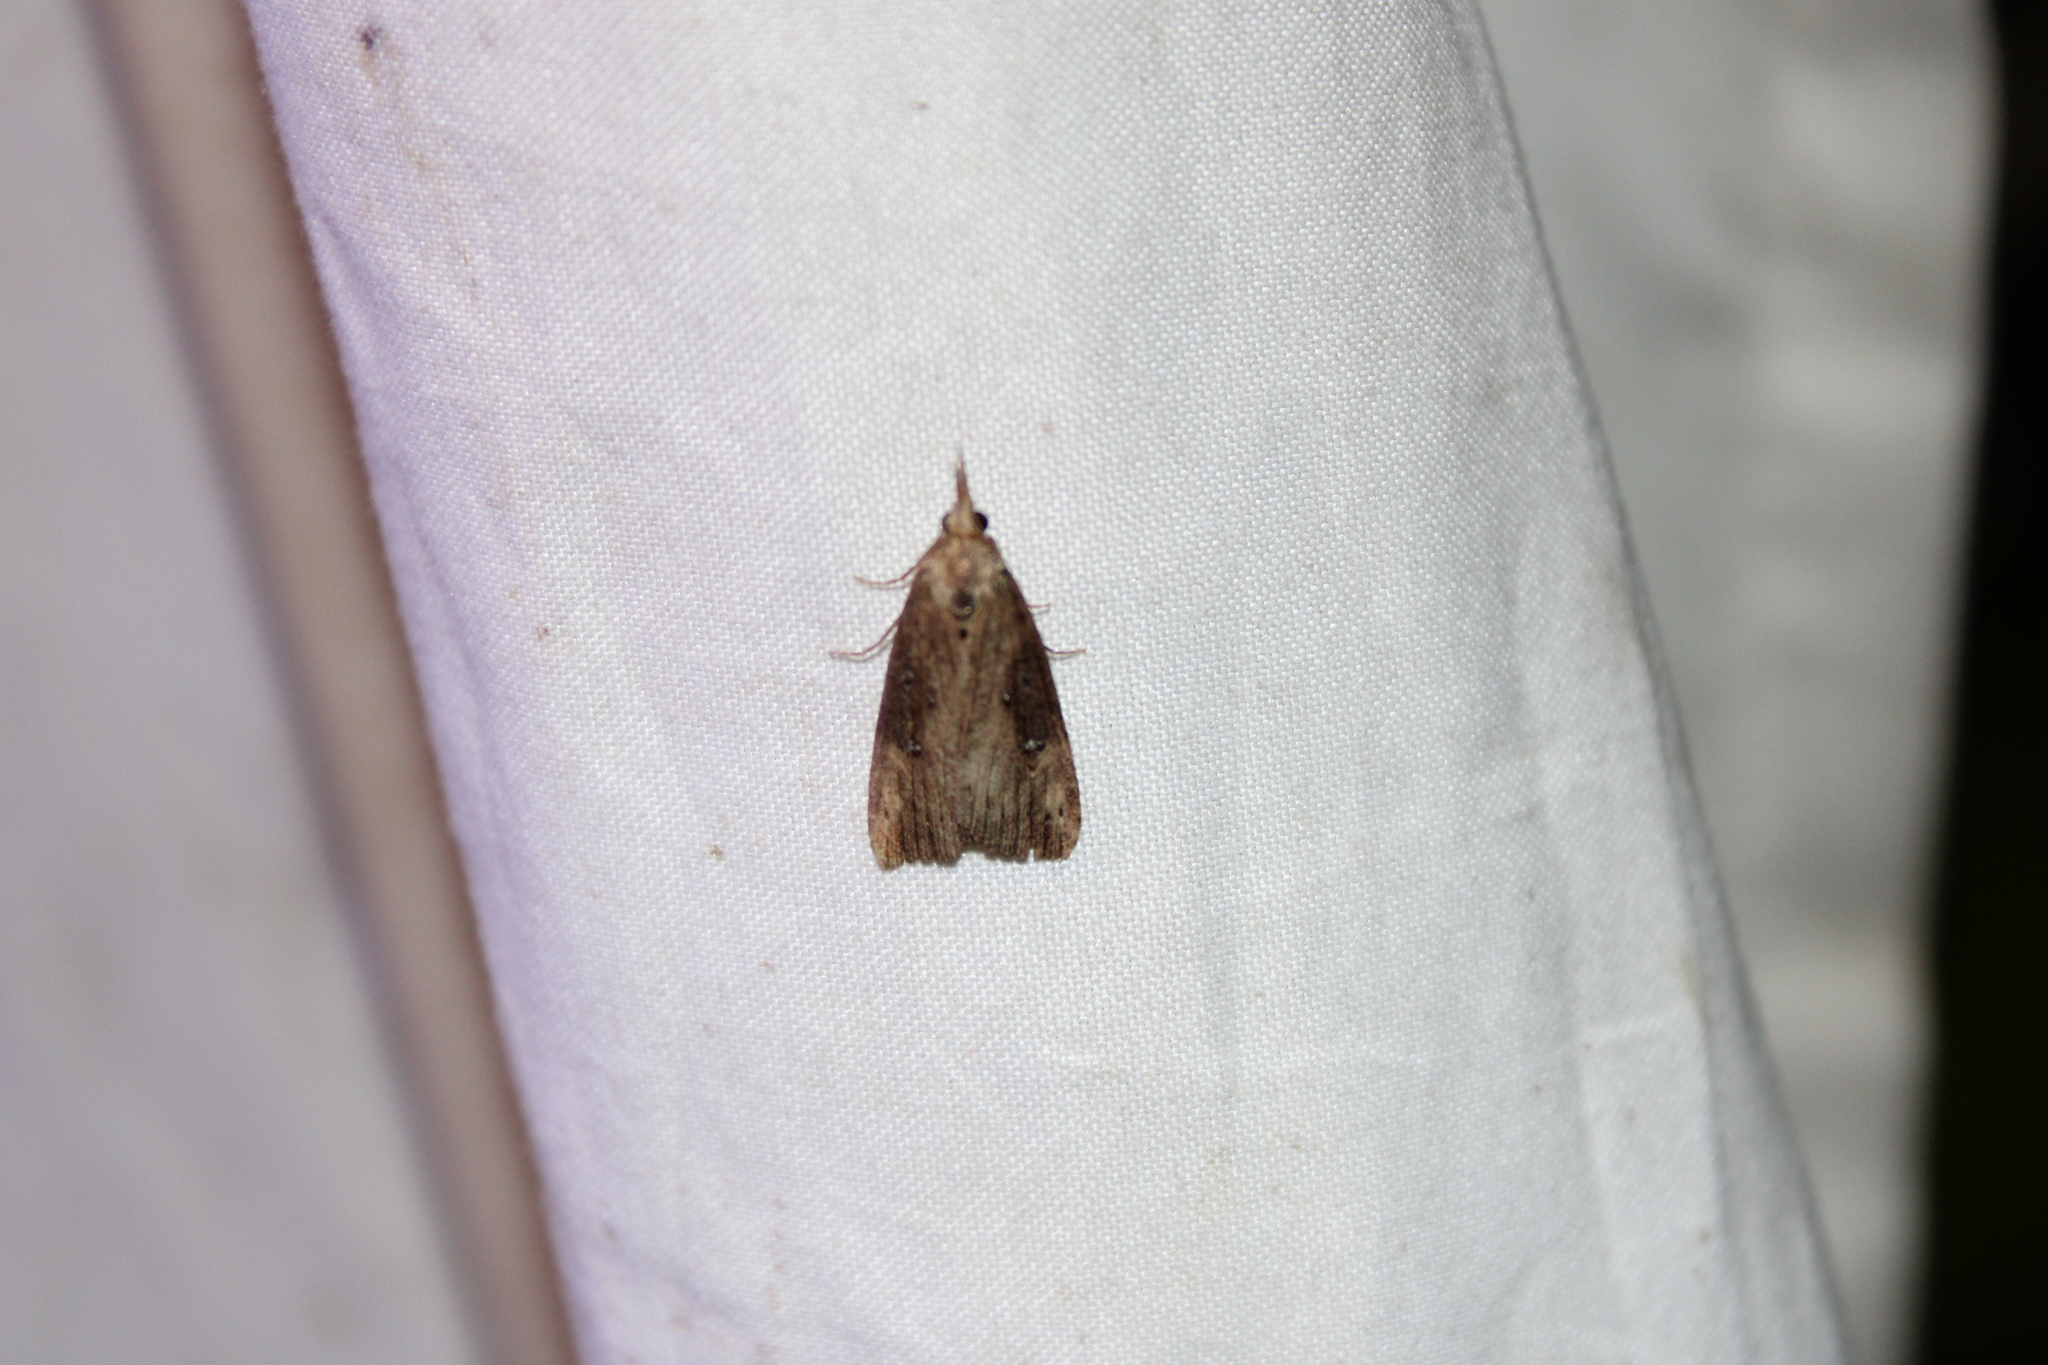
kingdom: Animalia
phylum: Arthropoda
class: Insecta
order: Lepidoptera
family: Erebidae
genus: Hypena
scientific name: Hypena humuli
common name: Hop vine snout
